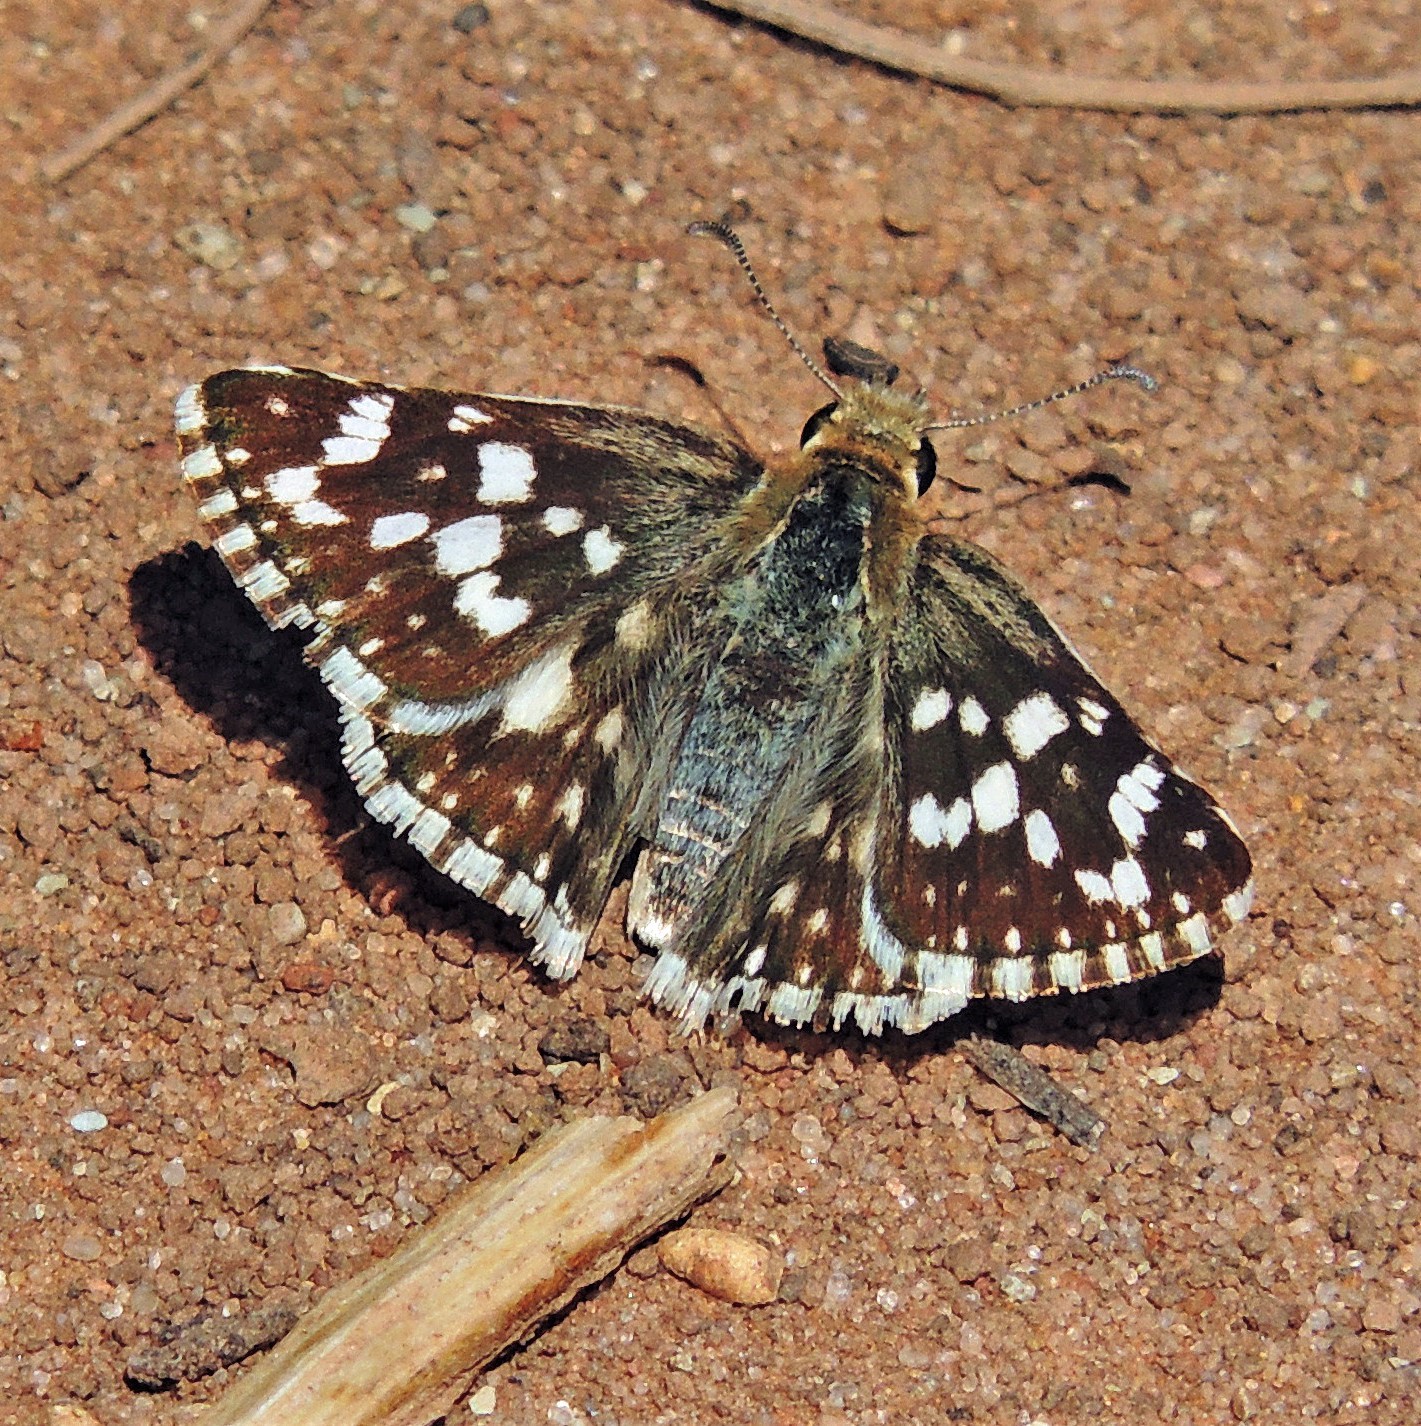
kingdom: Animalia
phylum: Arthropoda
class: Insecta
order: Lepidoptera
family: Hesperiidae
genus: Heliopetes
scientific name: Heliopetes americanus
